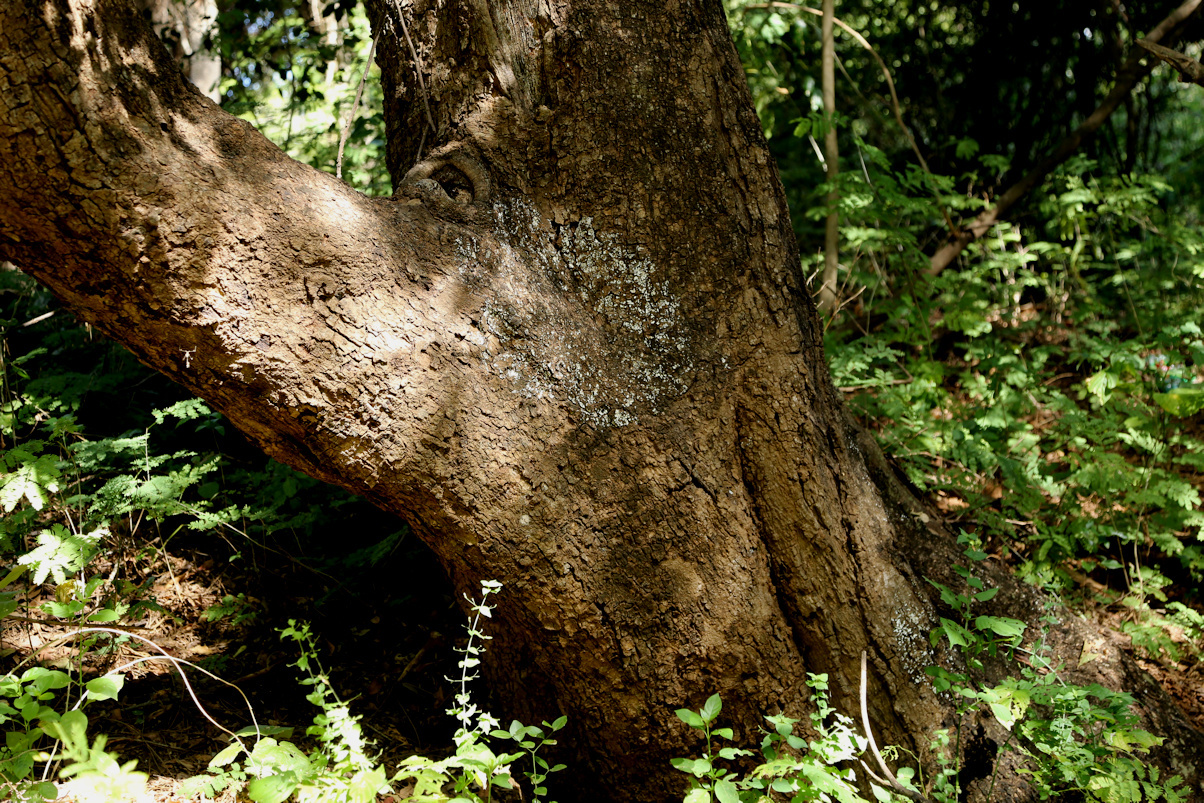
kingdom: Plantae
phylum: Tracheophyta
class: Magnoliopsida
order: Sapindales
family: Meliaceae
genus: Trichilia
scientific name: Trichilia emetica
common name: Christmas-bells
